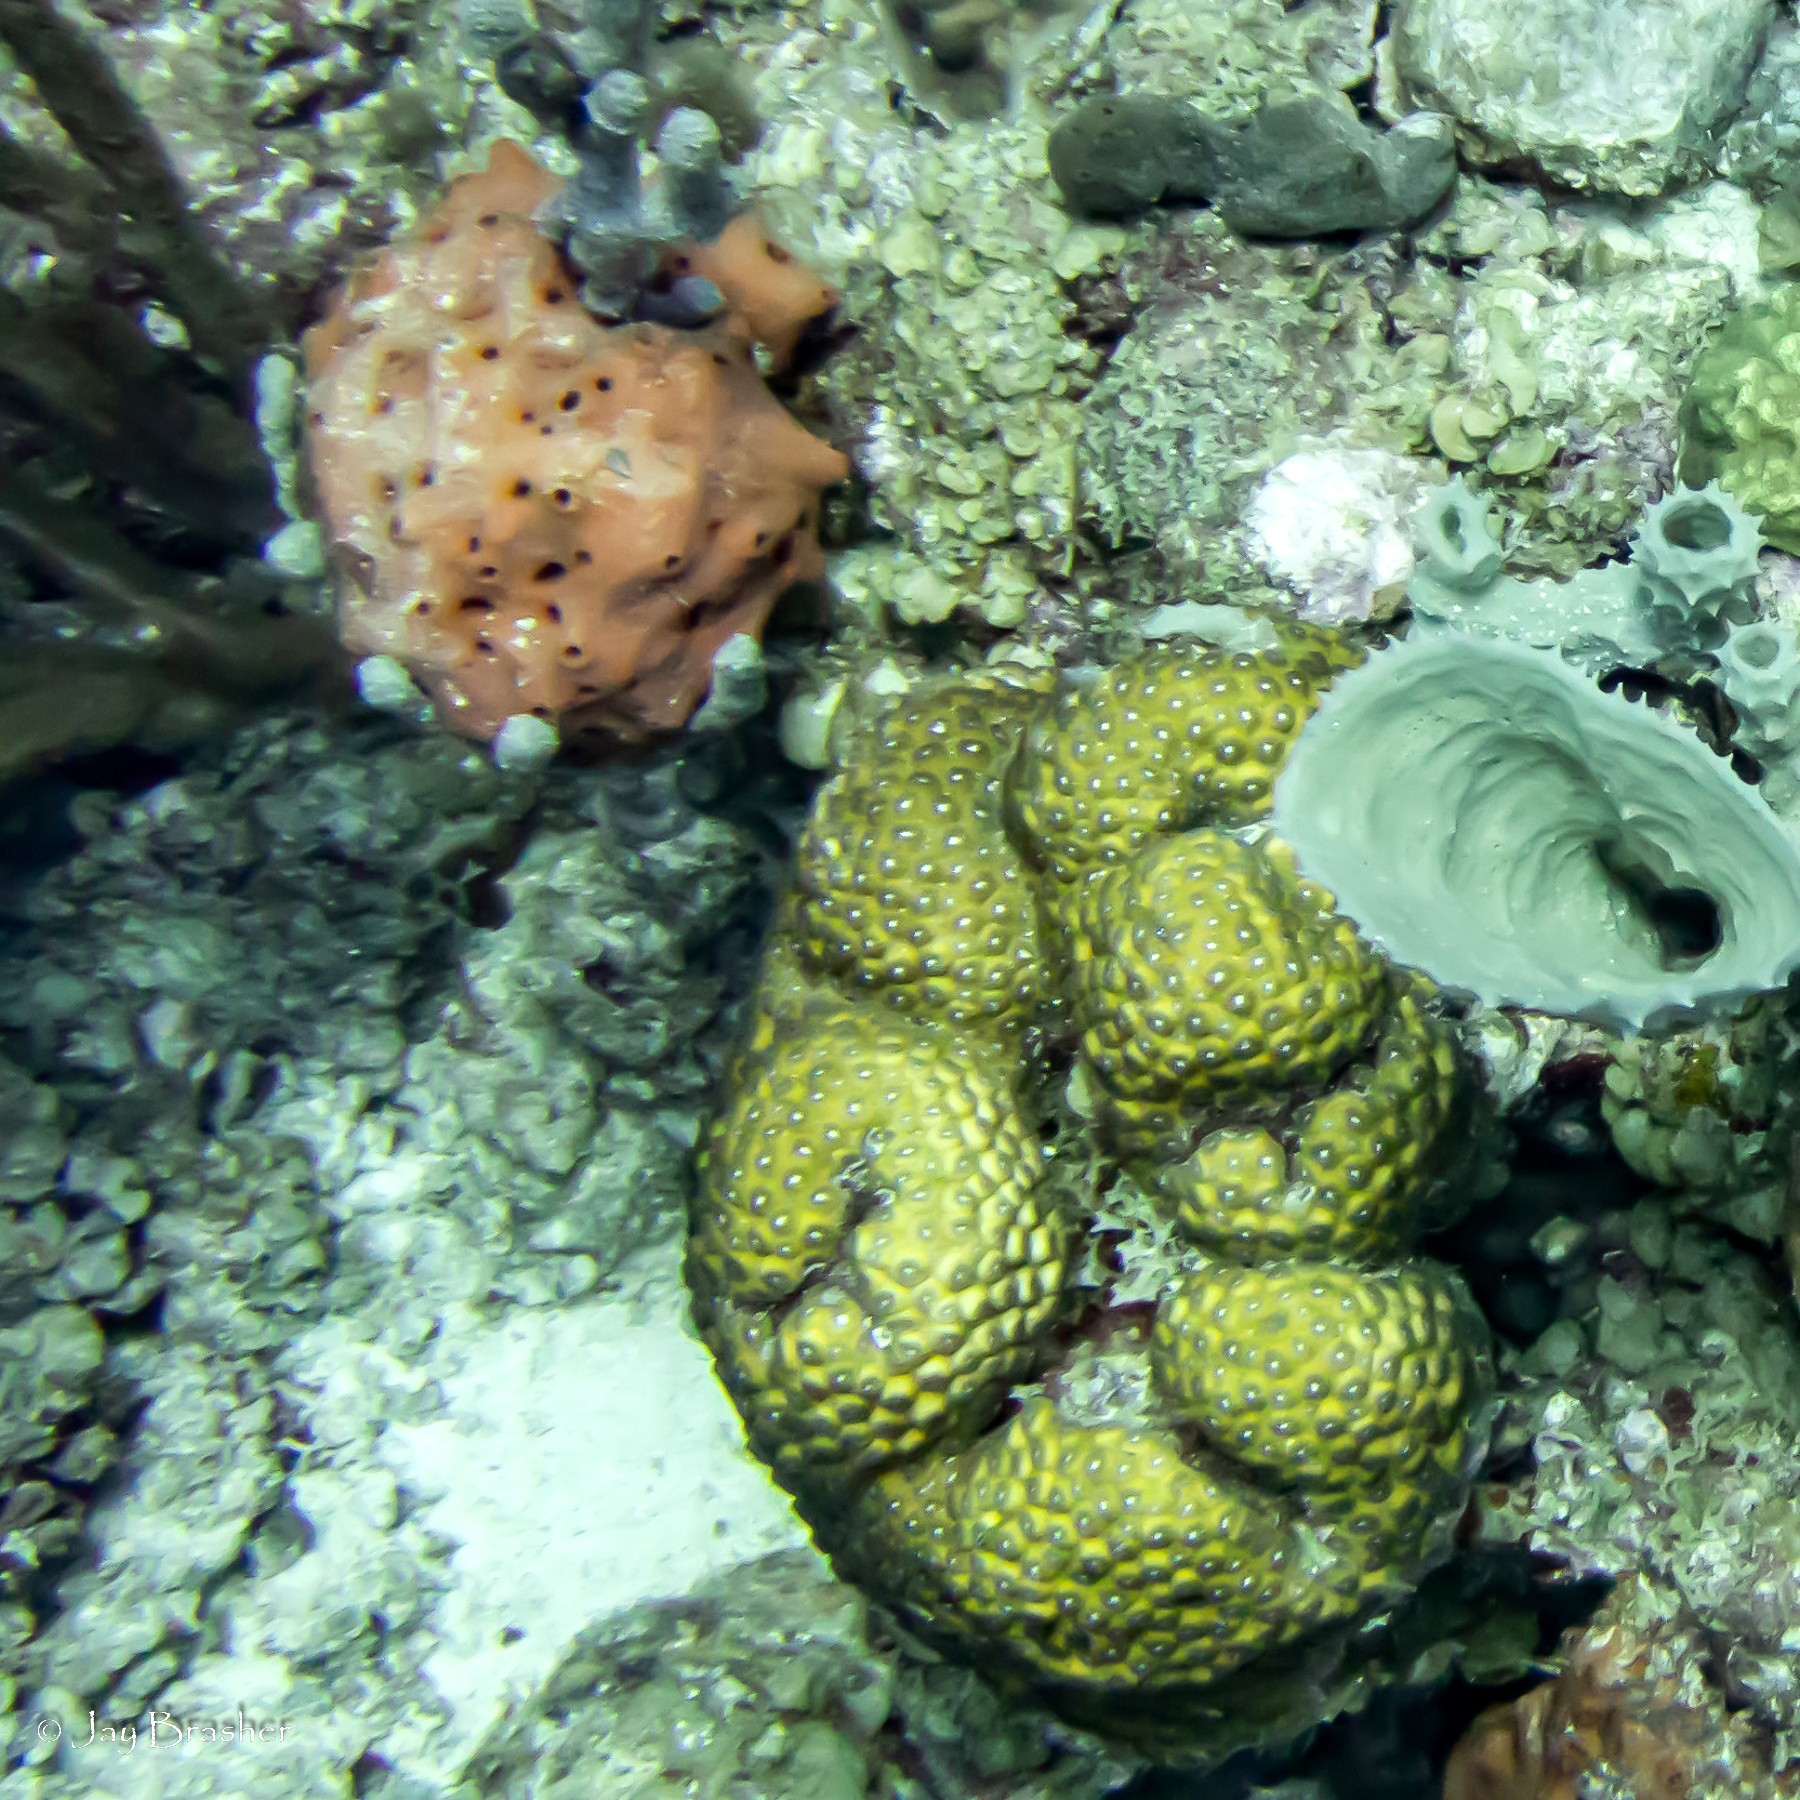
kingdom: Animalia
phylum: Porifera
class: Demospongiae
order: Agelasida
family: Agelasidae
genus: Agelas
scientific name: Agelas sventres
